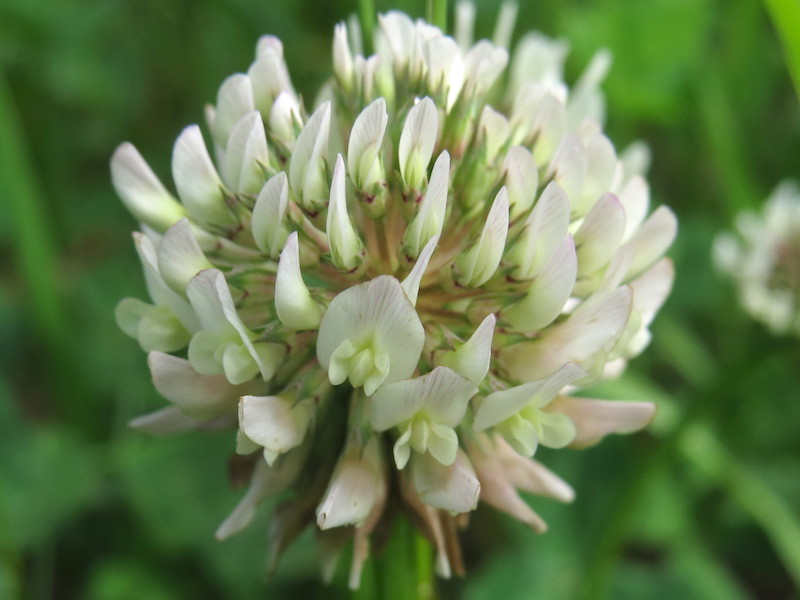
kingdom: Plantae
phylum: Tracheophyta
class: Magnoliopsida
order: Fabales
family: Fabaceae
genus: Trifolium
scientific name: Trifolium repens
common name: White clover
